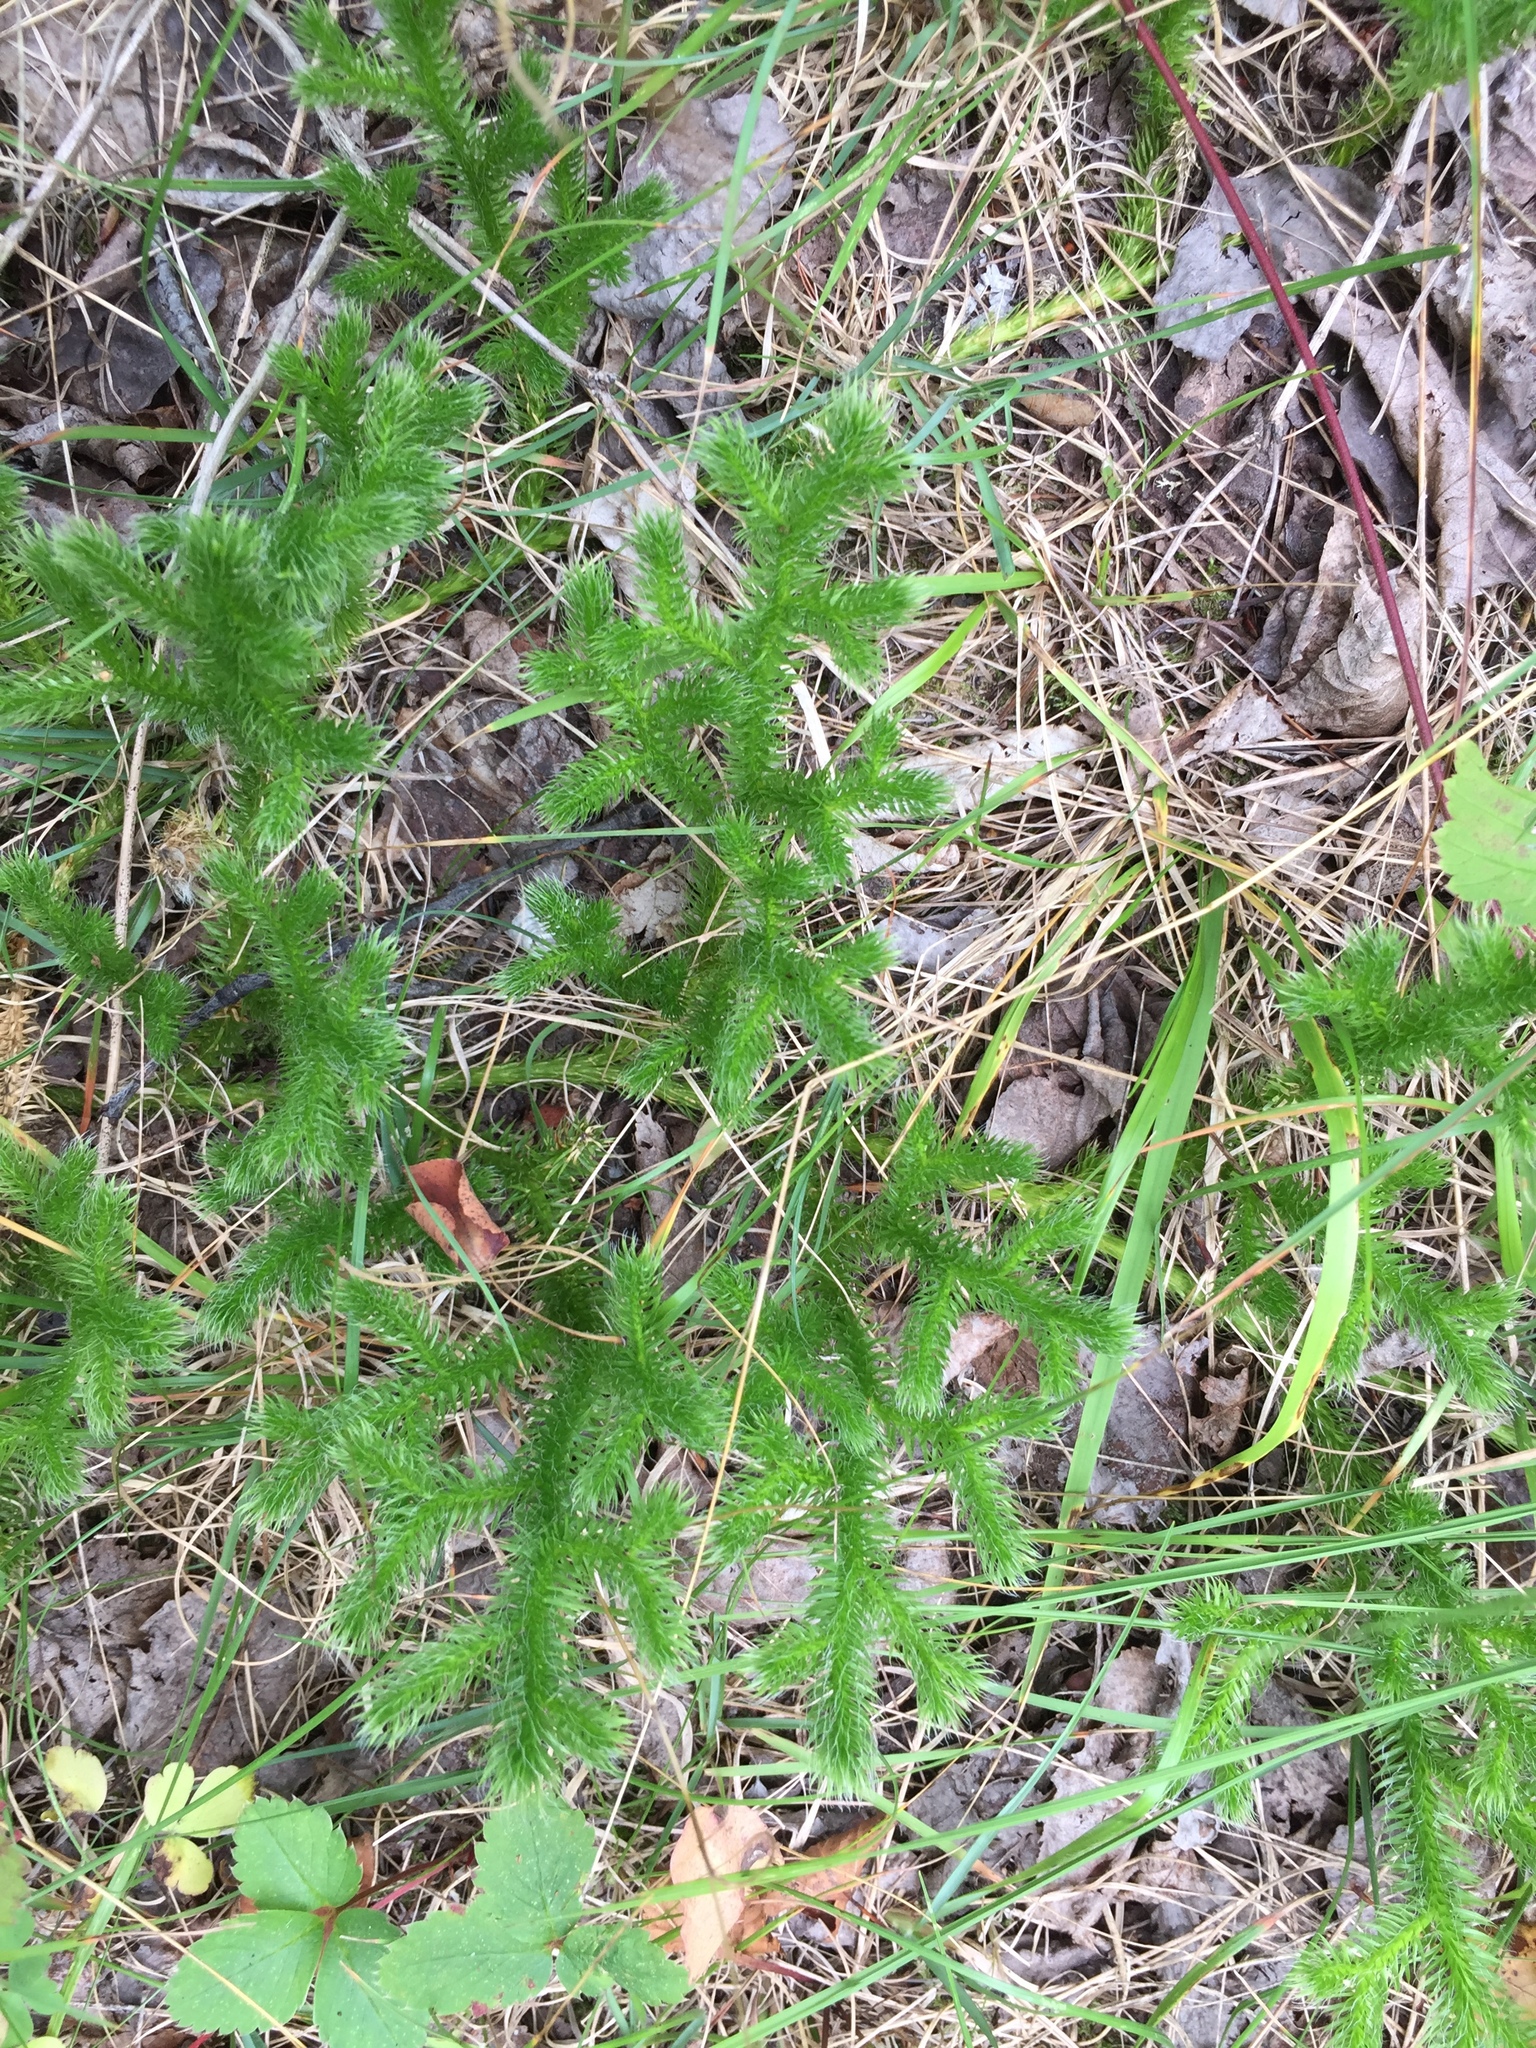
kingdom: Plantae
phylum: Tracheophyta
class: Lycopodiopsida
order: Lycopodiales
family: Lycopodiaceae
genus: Lycopodium
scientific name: Lycopodium clavatum
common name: Stag's-horn clubmoss
